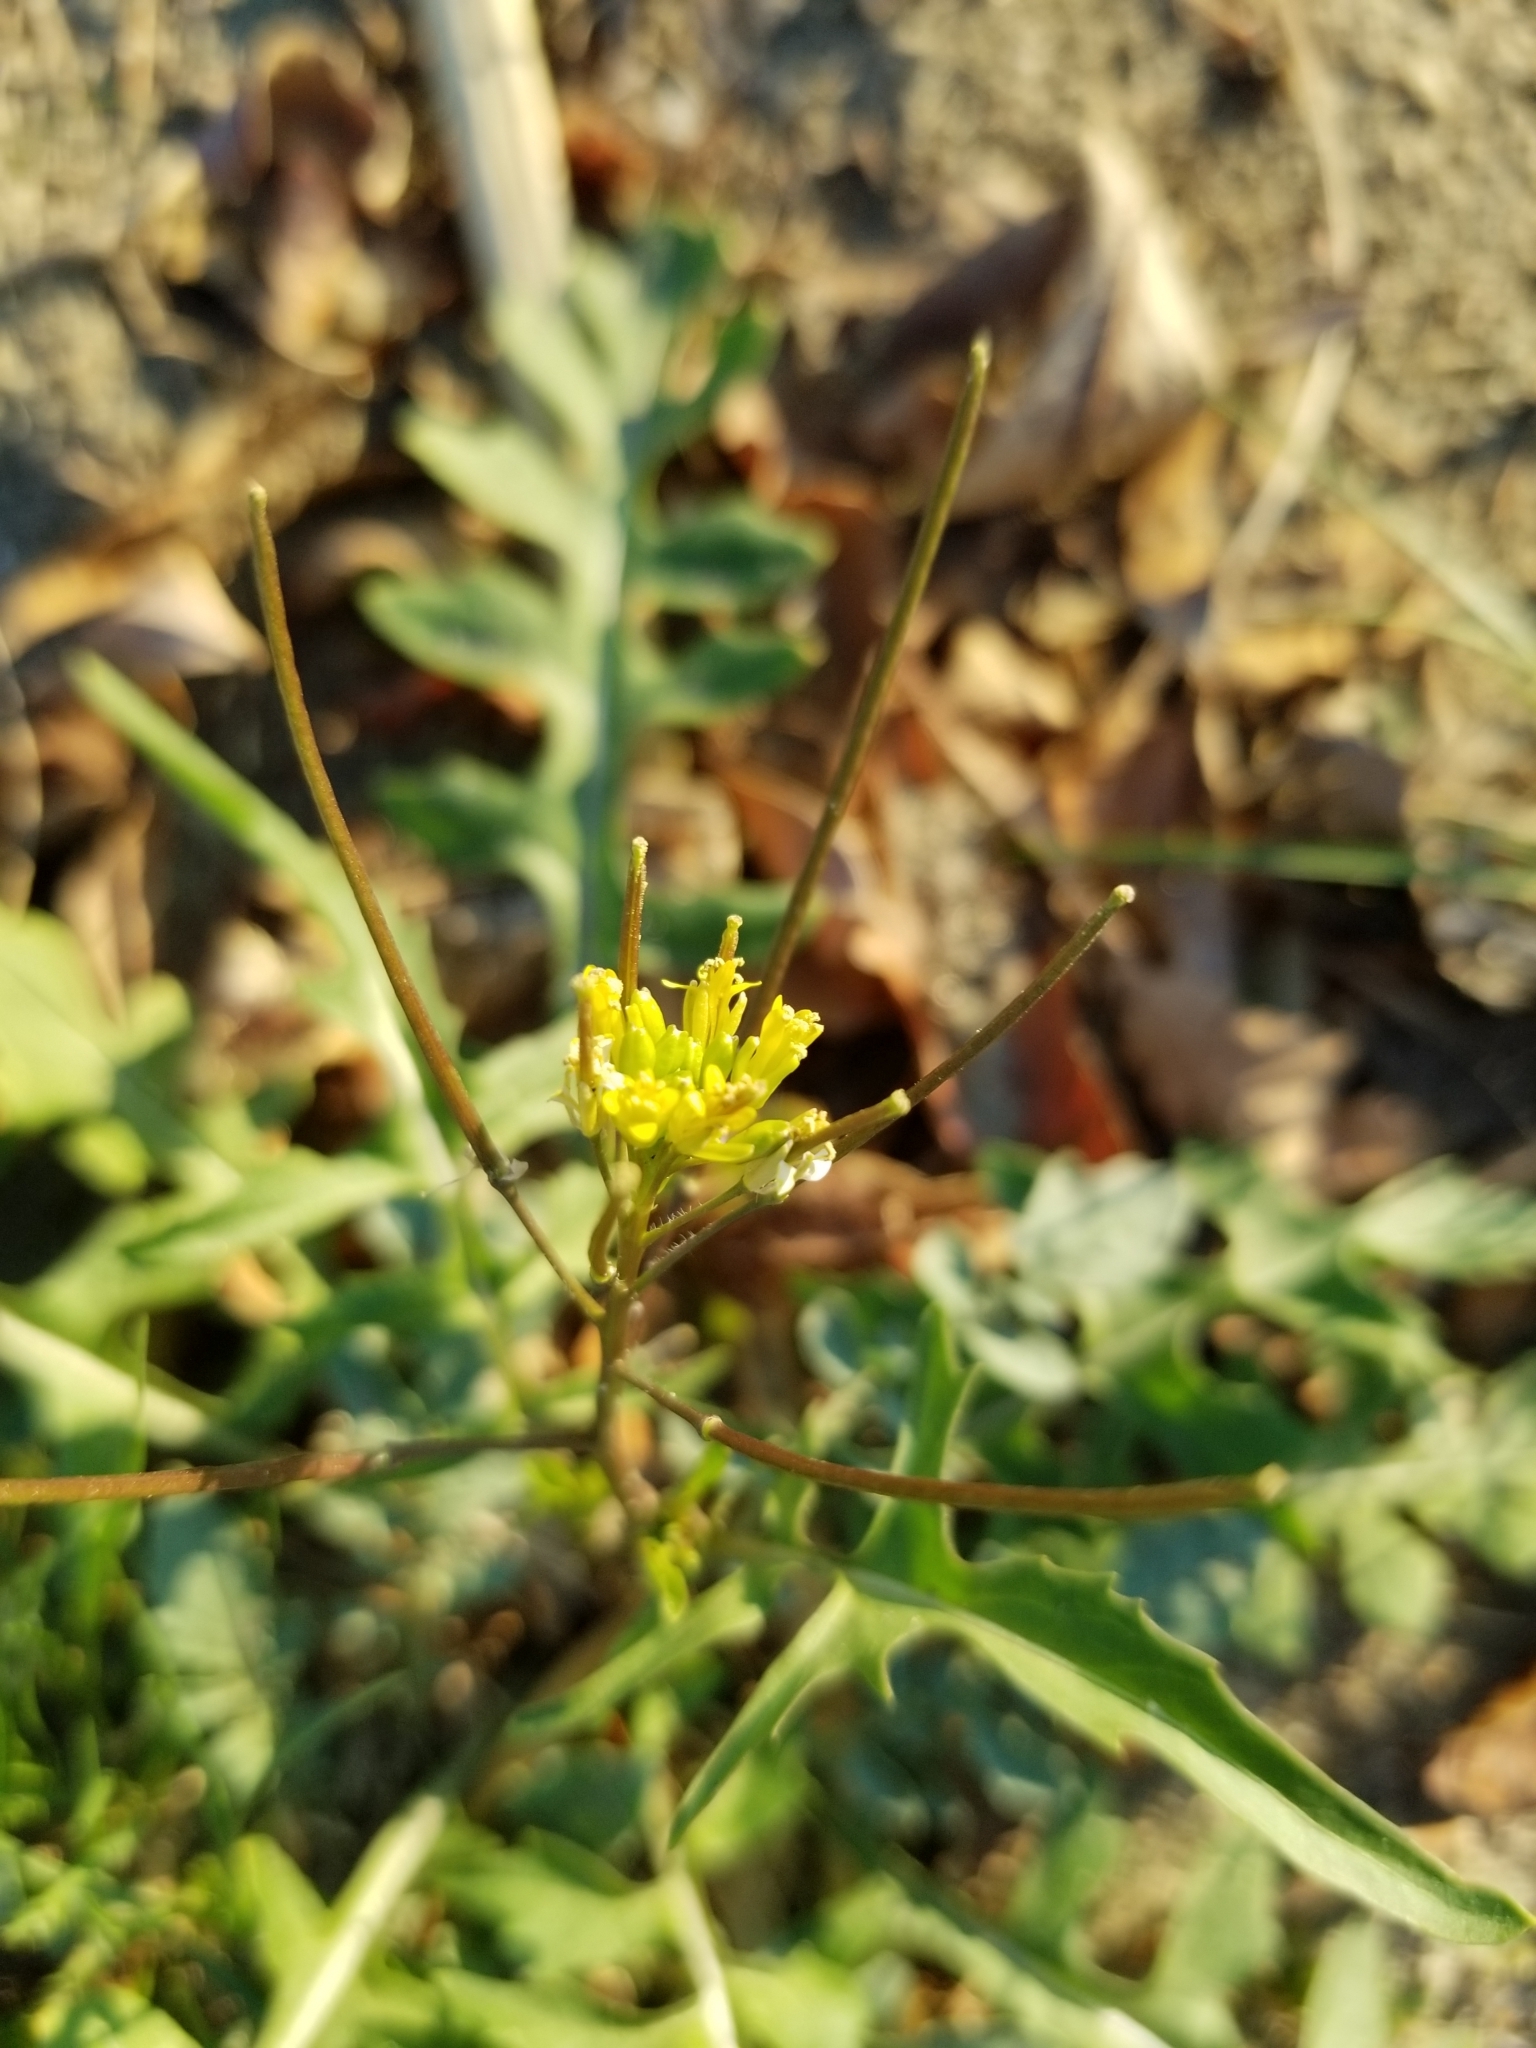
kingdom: Plantae
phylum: Tracheophyta
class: Magnoliopsida
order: Brassicales
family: Brassicaceae
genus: Sisymbrium
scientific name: Sisymbrium irio
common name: London rocket
